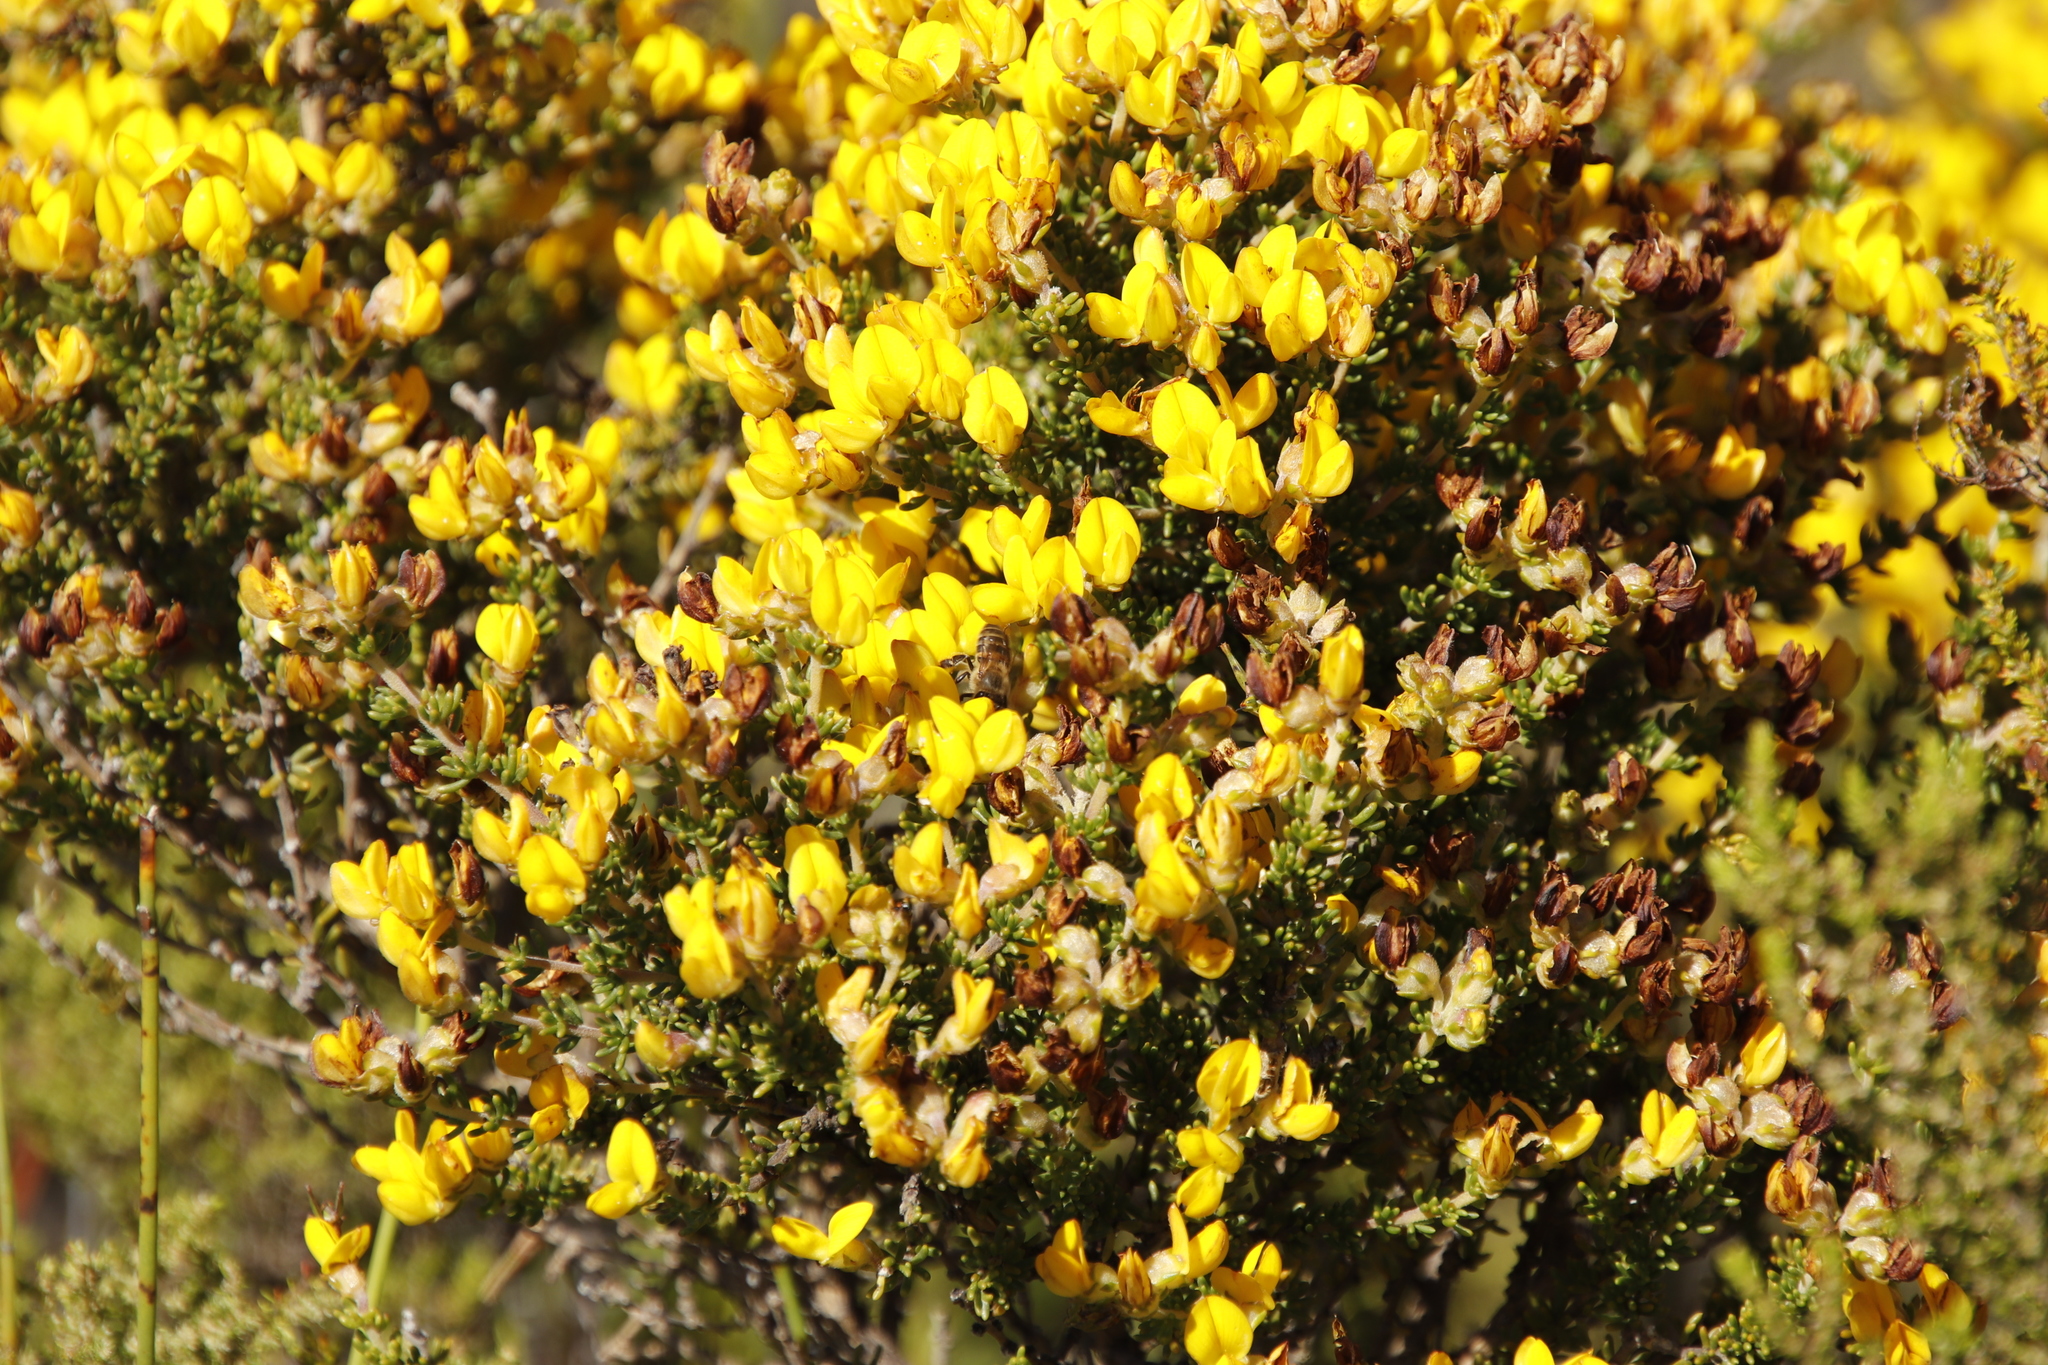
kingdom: Plantae
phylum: Tracheophyta
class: Magnoliopsida
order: Fabales
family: Fabaceae
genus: Aspalathus
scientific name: Aspalathus carnosa
